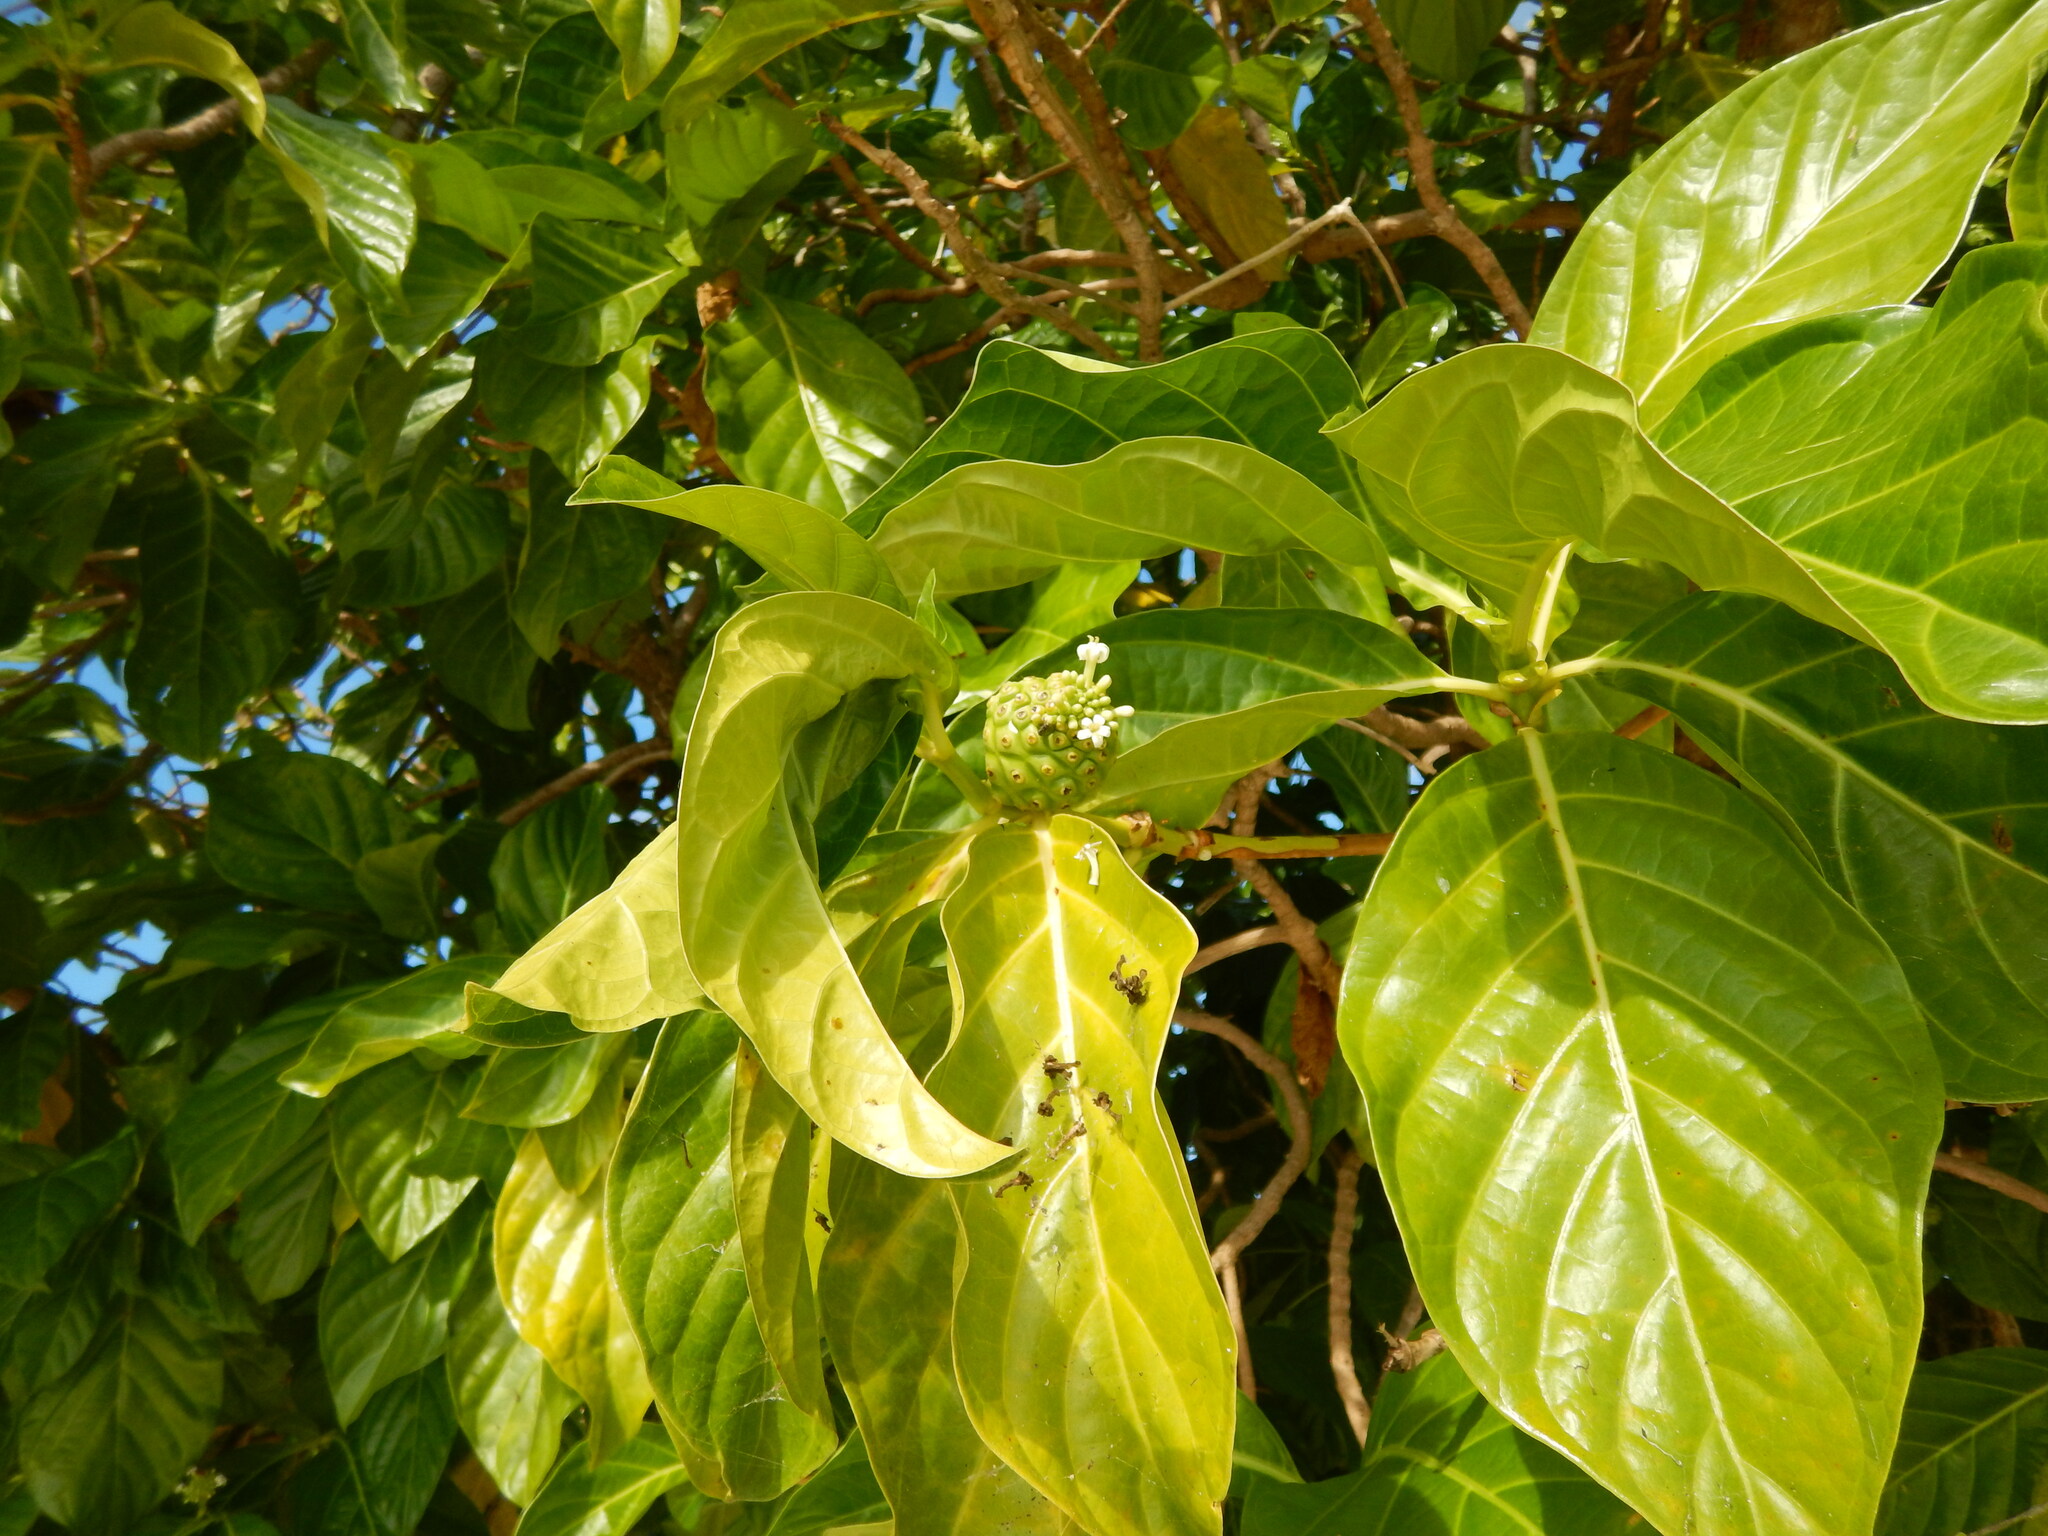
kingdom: Plantae
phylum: Tracheophyta
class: Magnoliopsida
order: Gentianales
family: Rubiaceae
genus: Morinda
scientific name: Morinda citrifolia
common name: Indian-mulberry
